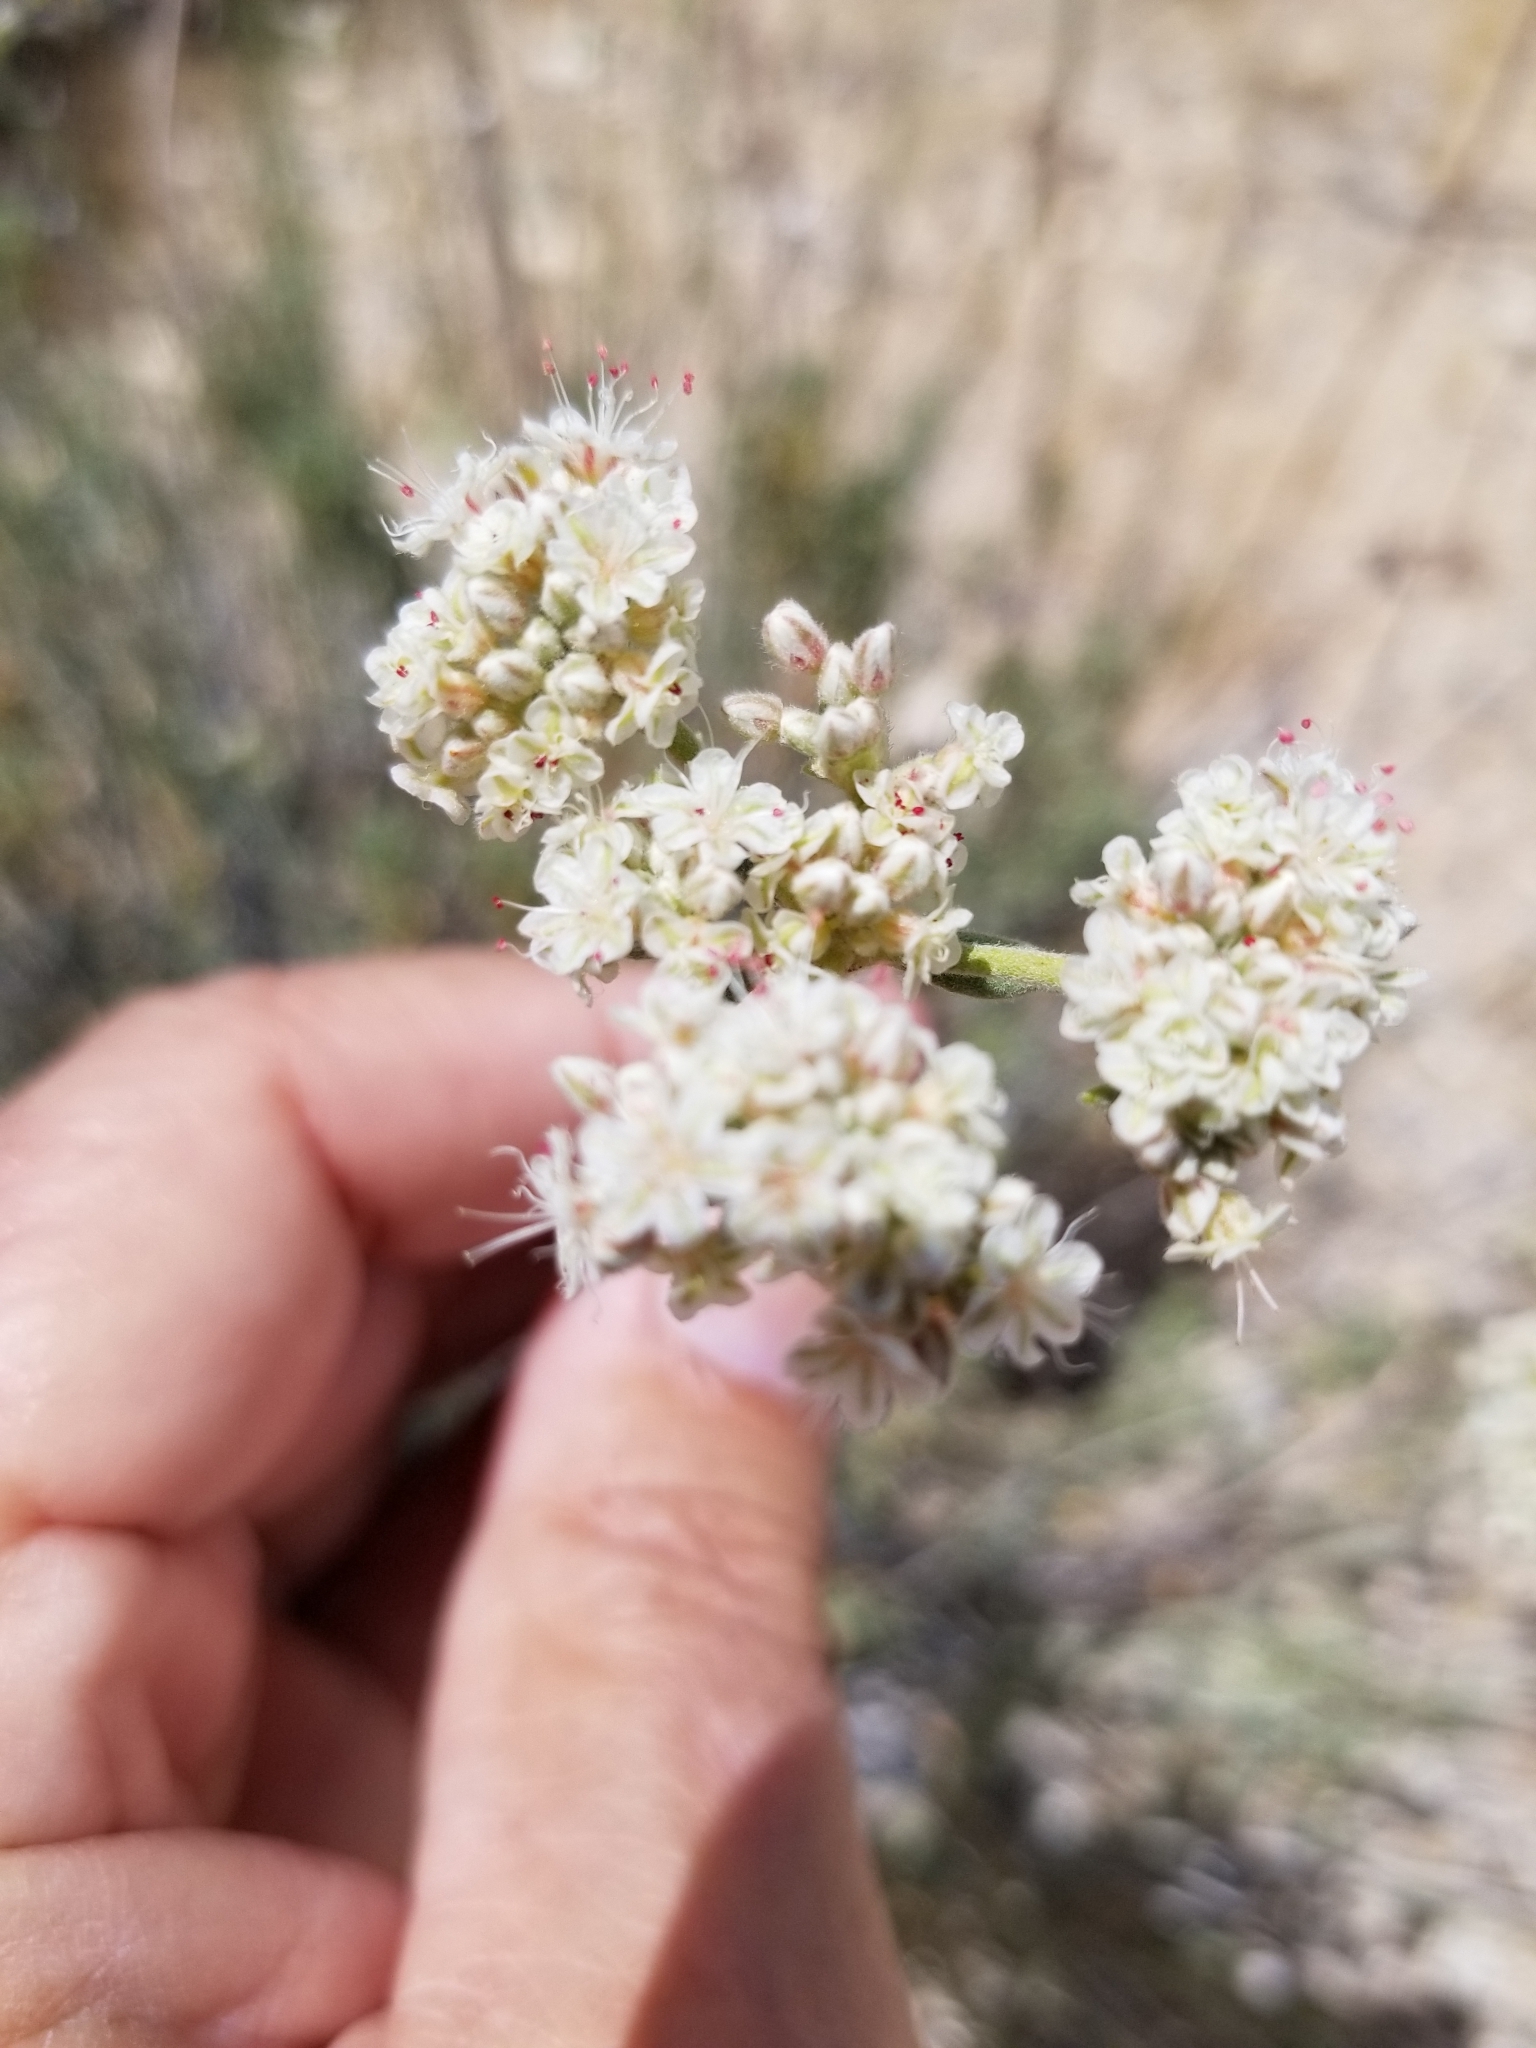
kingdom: Plantae
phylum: Tracheophyta
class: Magnoliopsida
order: Caryophyllales
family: Polygonaceae
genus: Eriogonum
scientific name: Eriogonum fasciculatum
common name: California wild buckwheat
